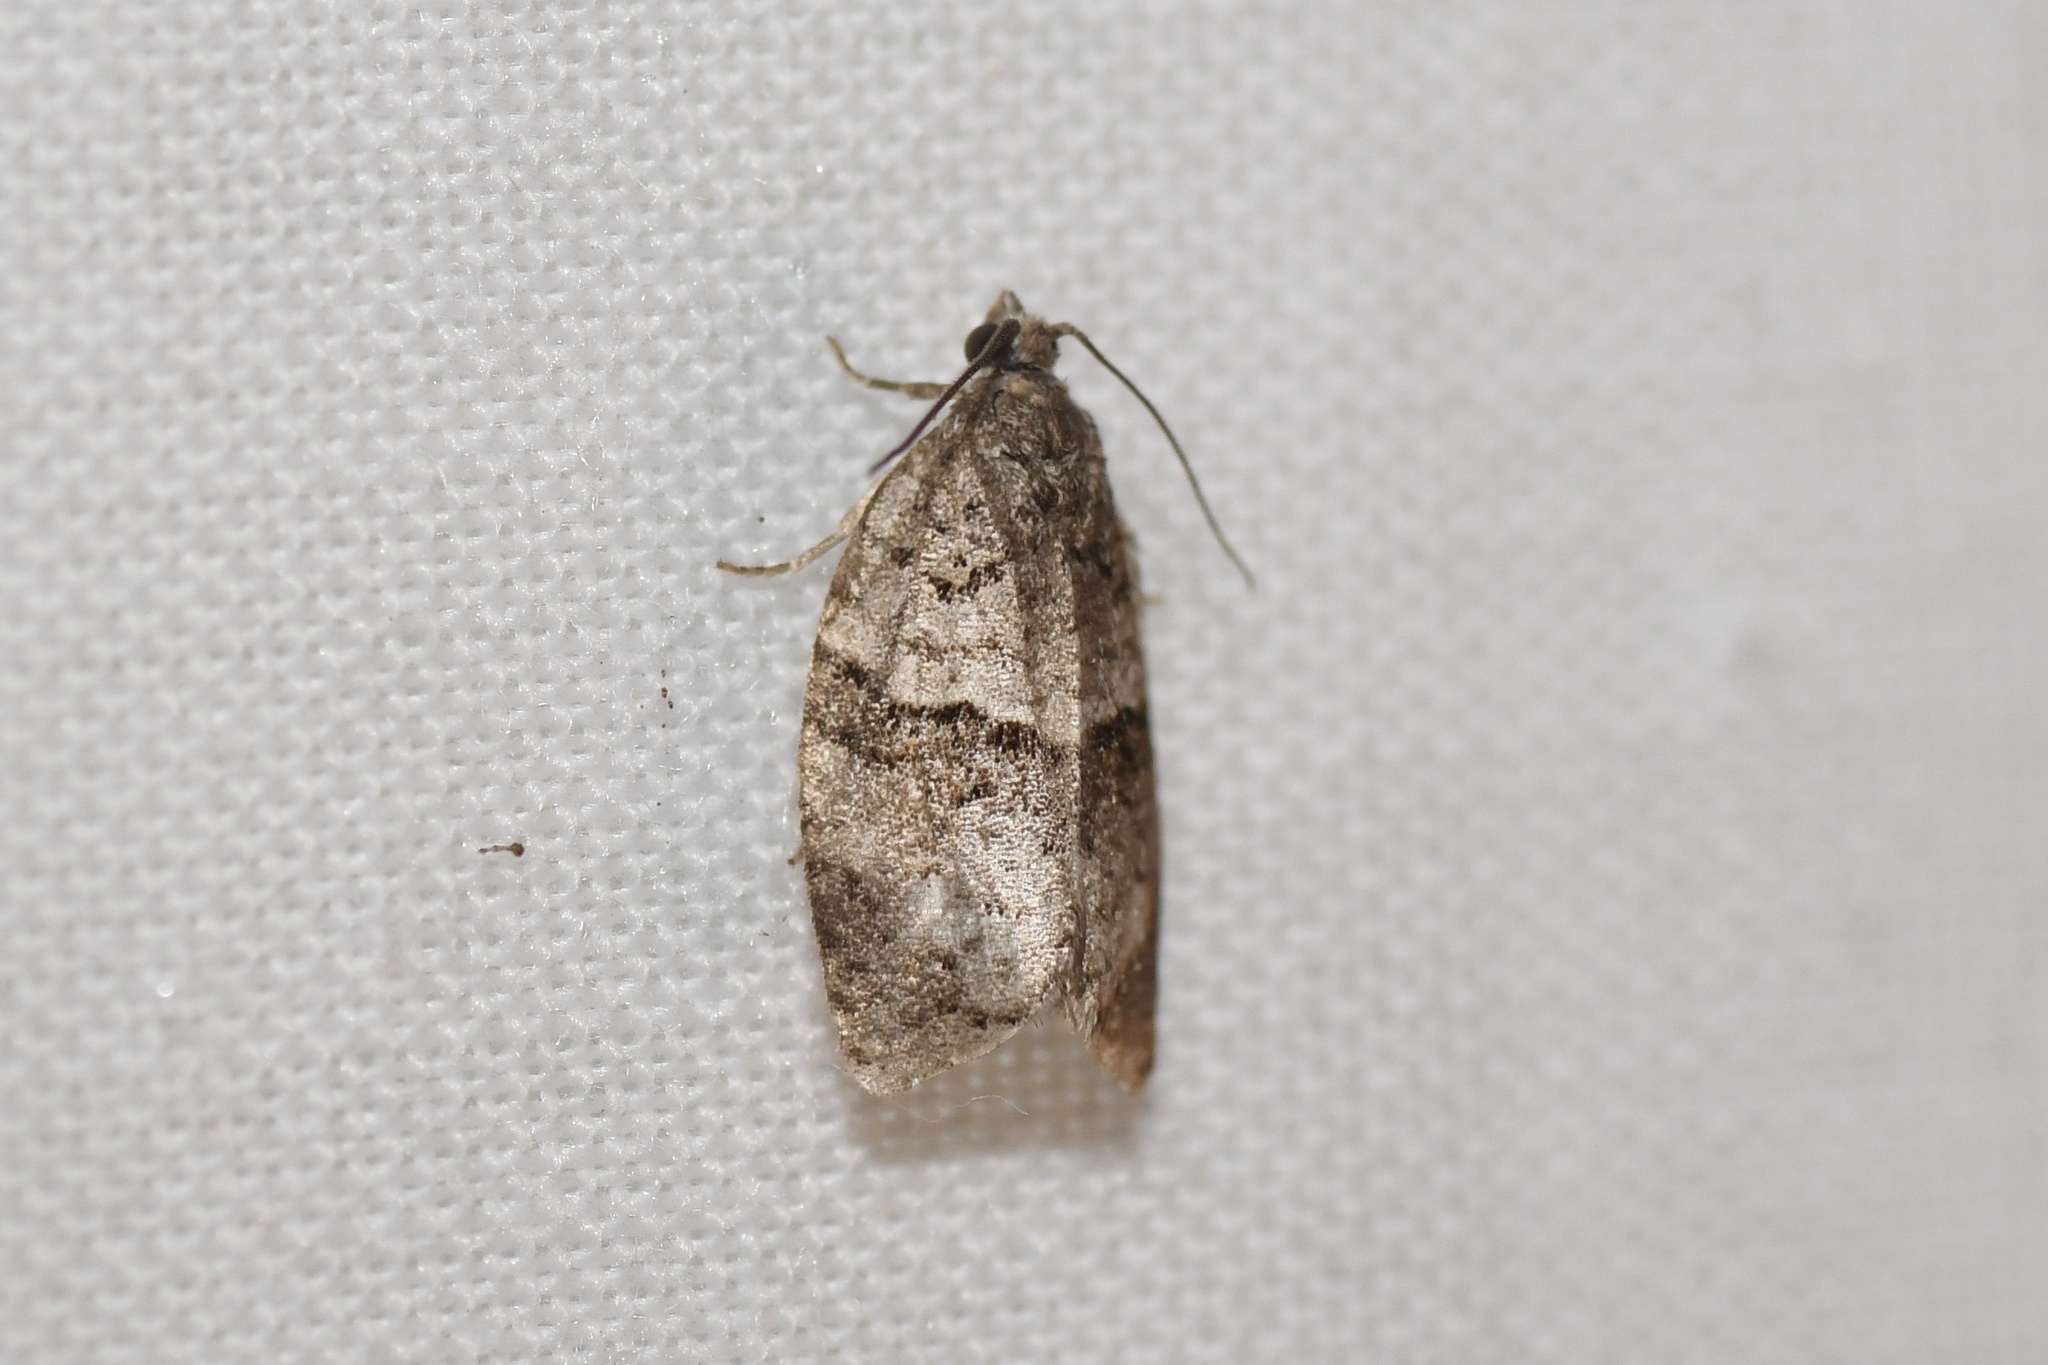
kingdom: Animalia
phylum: Arthropoda
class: Insecta
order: Lepidoptera
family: Tortricidae
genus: Syndemis
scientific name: Syndemis afflictana
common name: Gray leafroller moth
